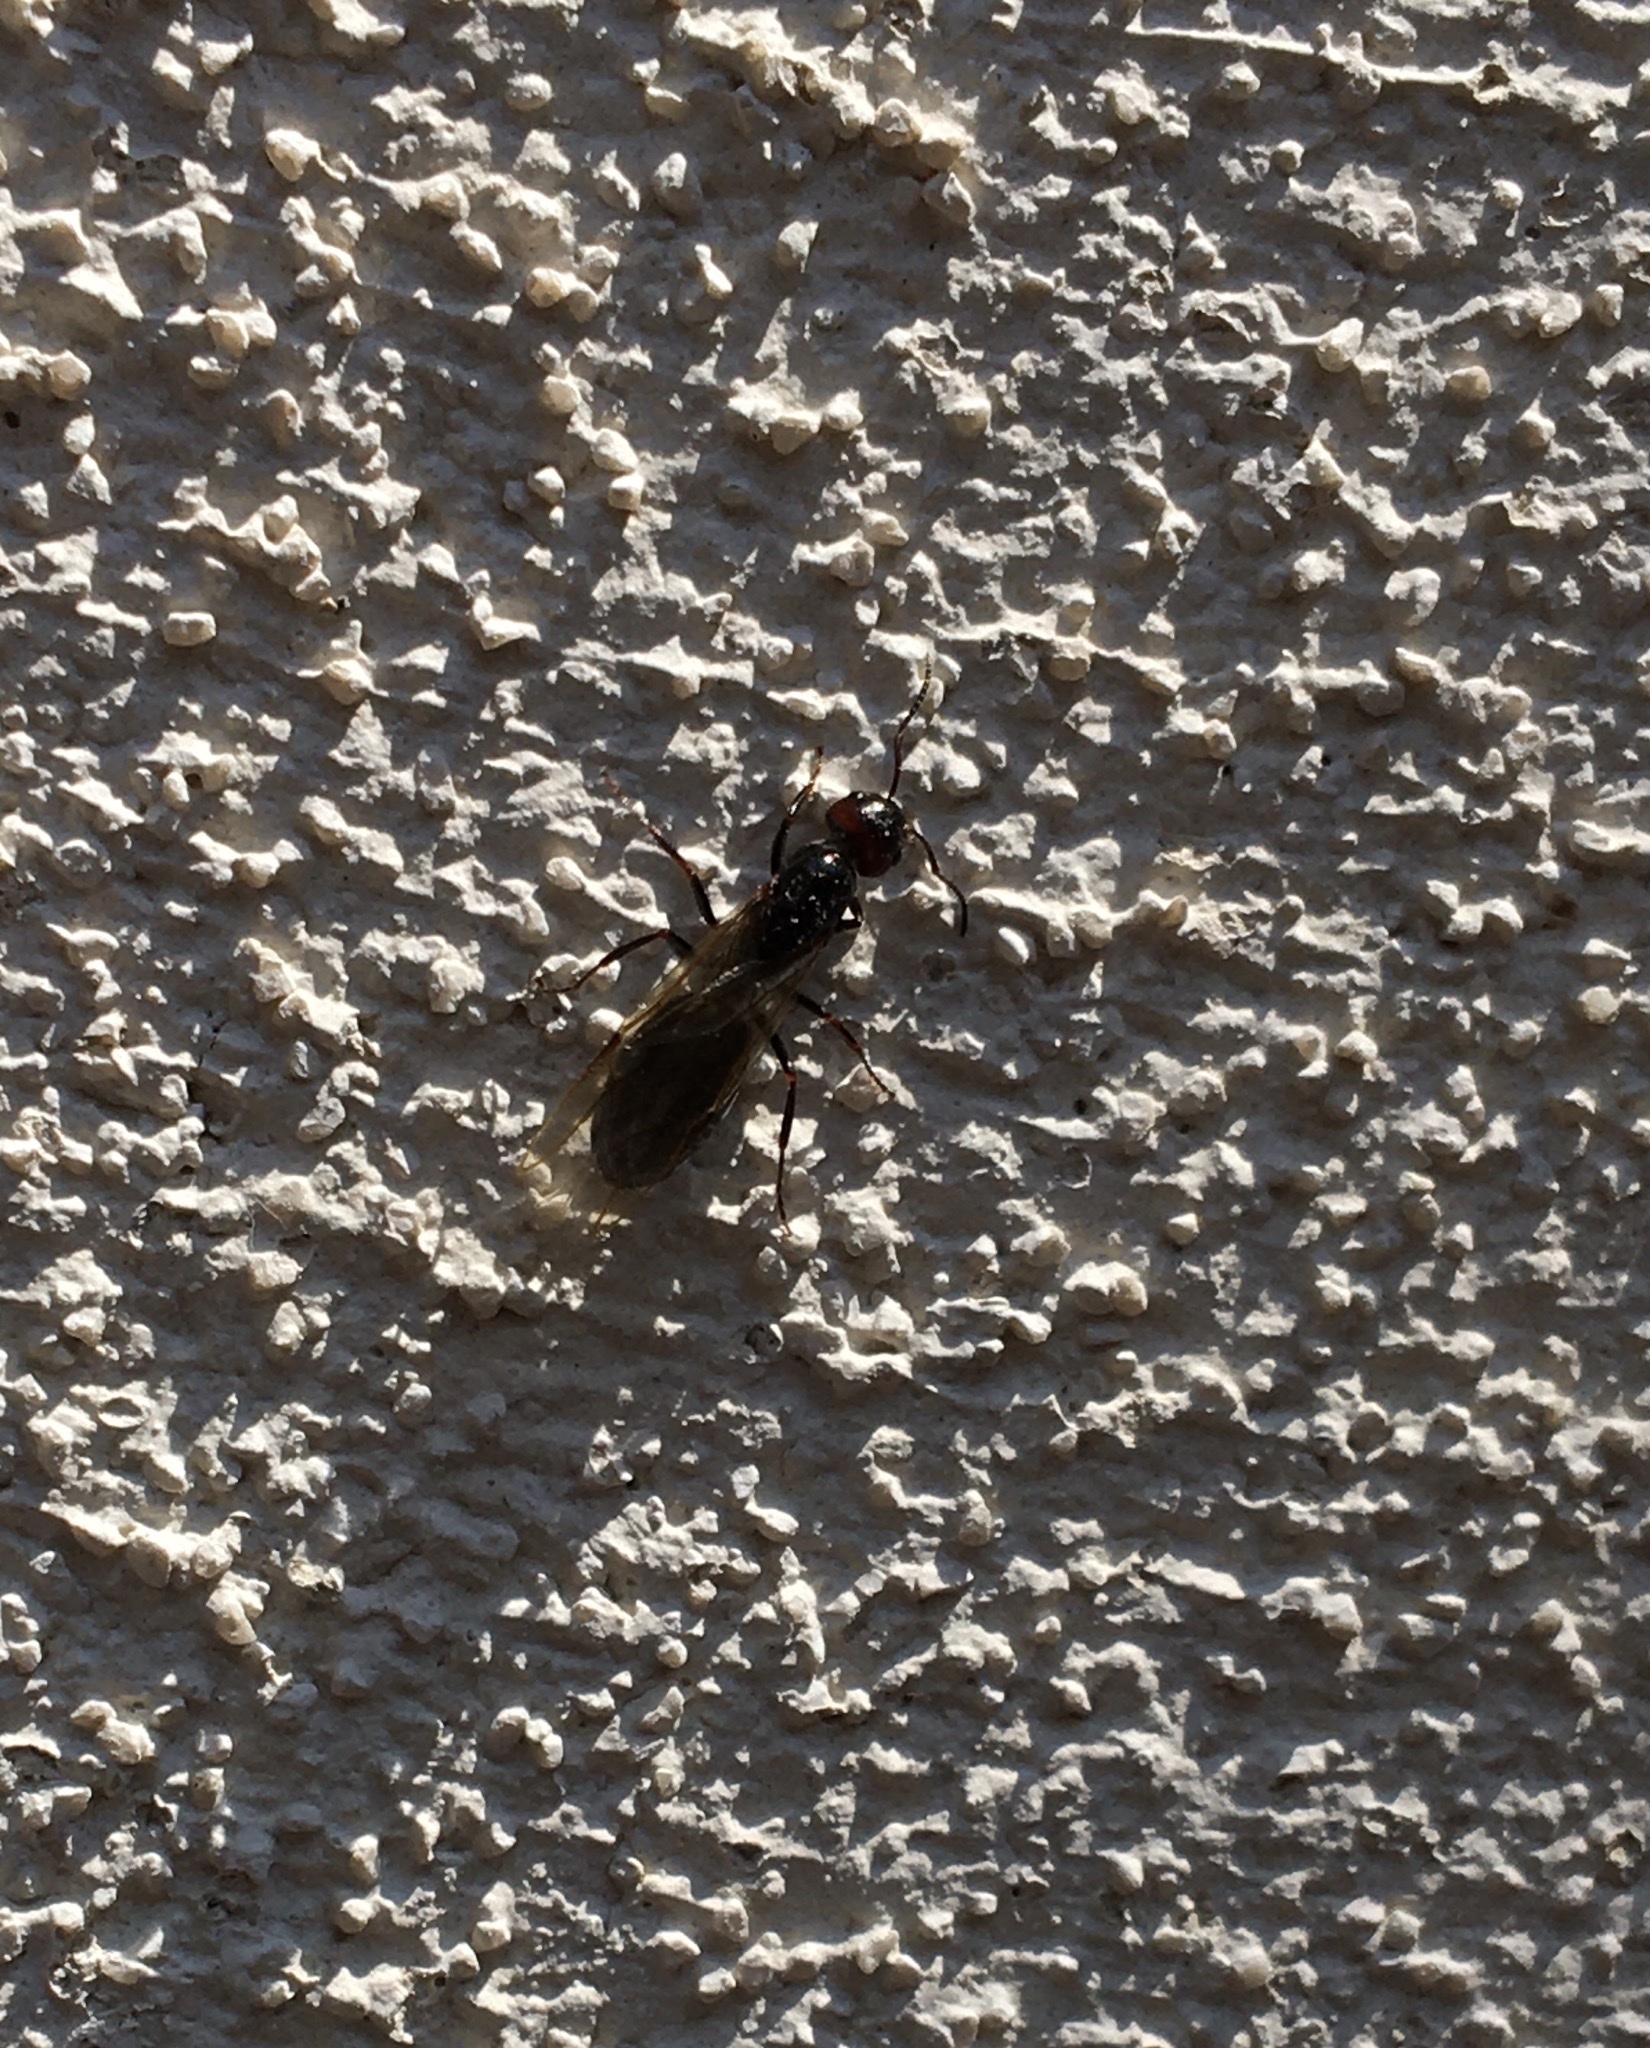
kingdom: Animalia
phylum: Arthropoda
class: Insecta
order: Hymenoptera
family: Formicidae
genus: Camponotus
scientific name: Camponotus lateralis
